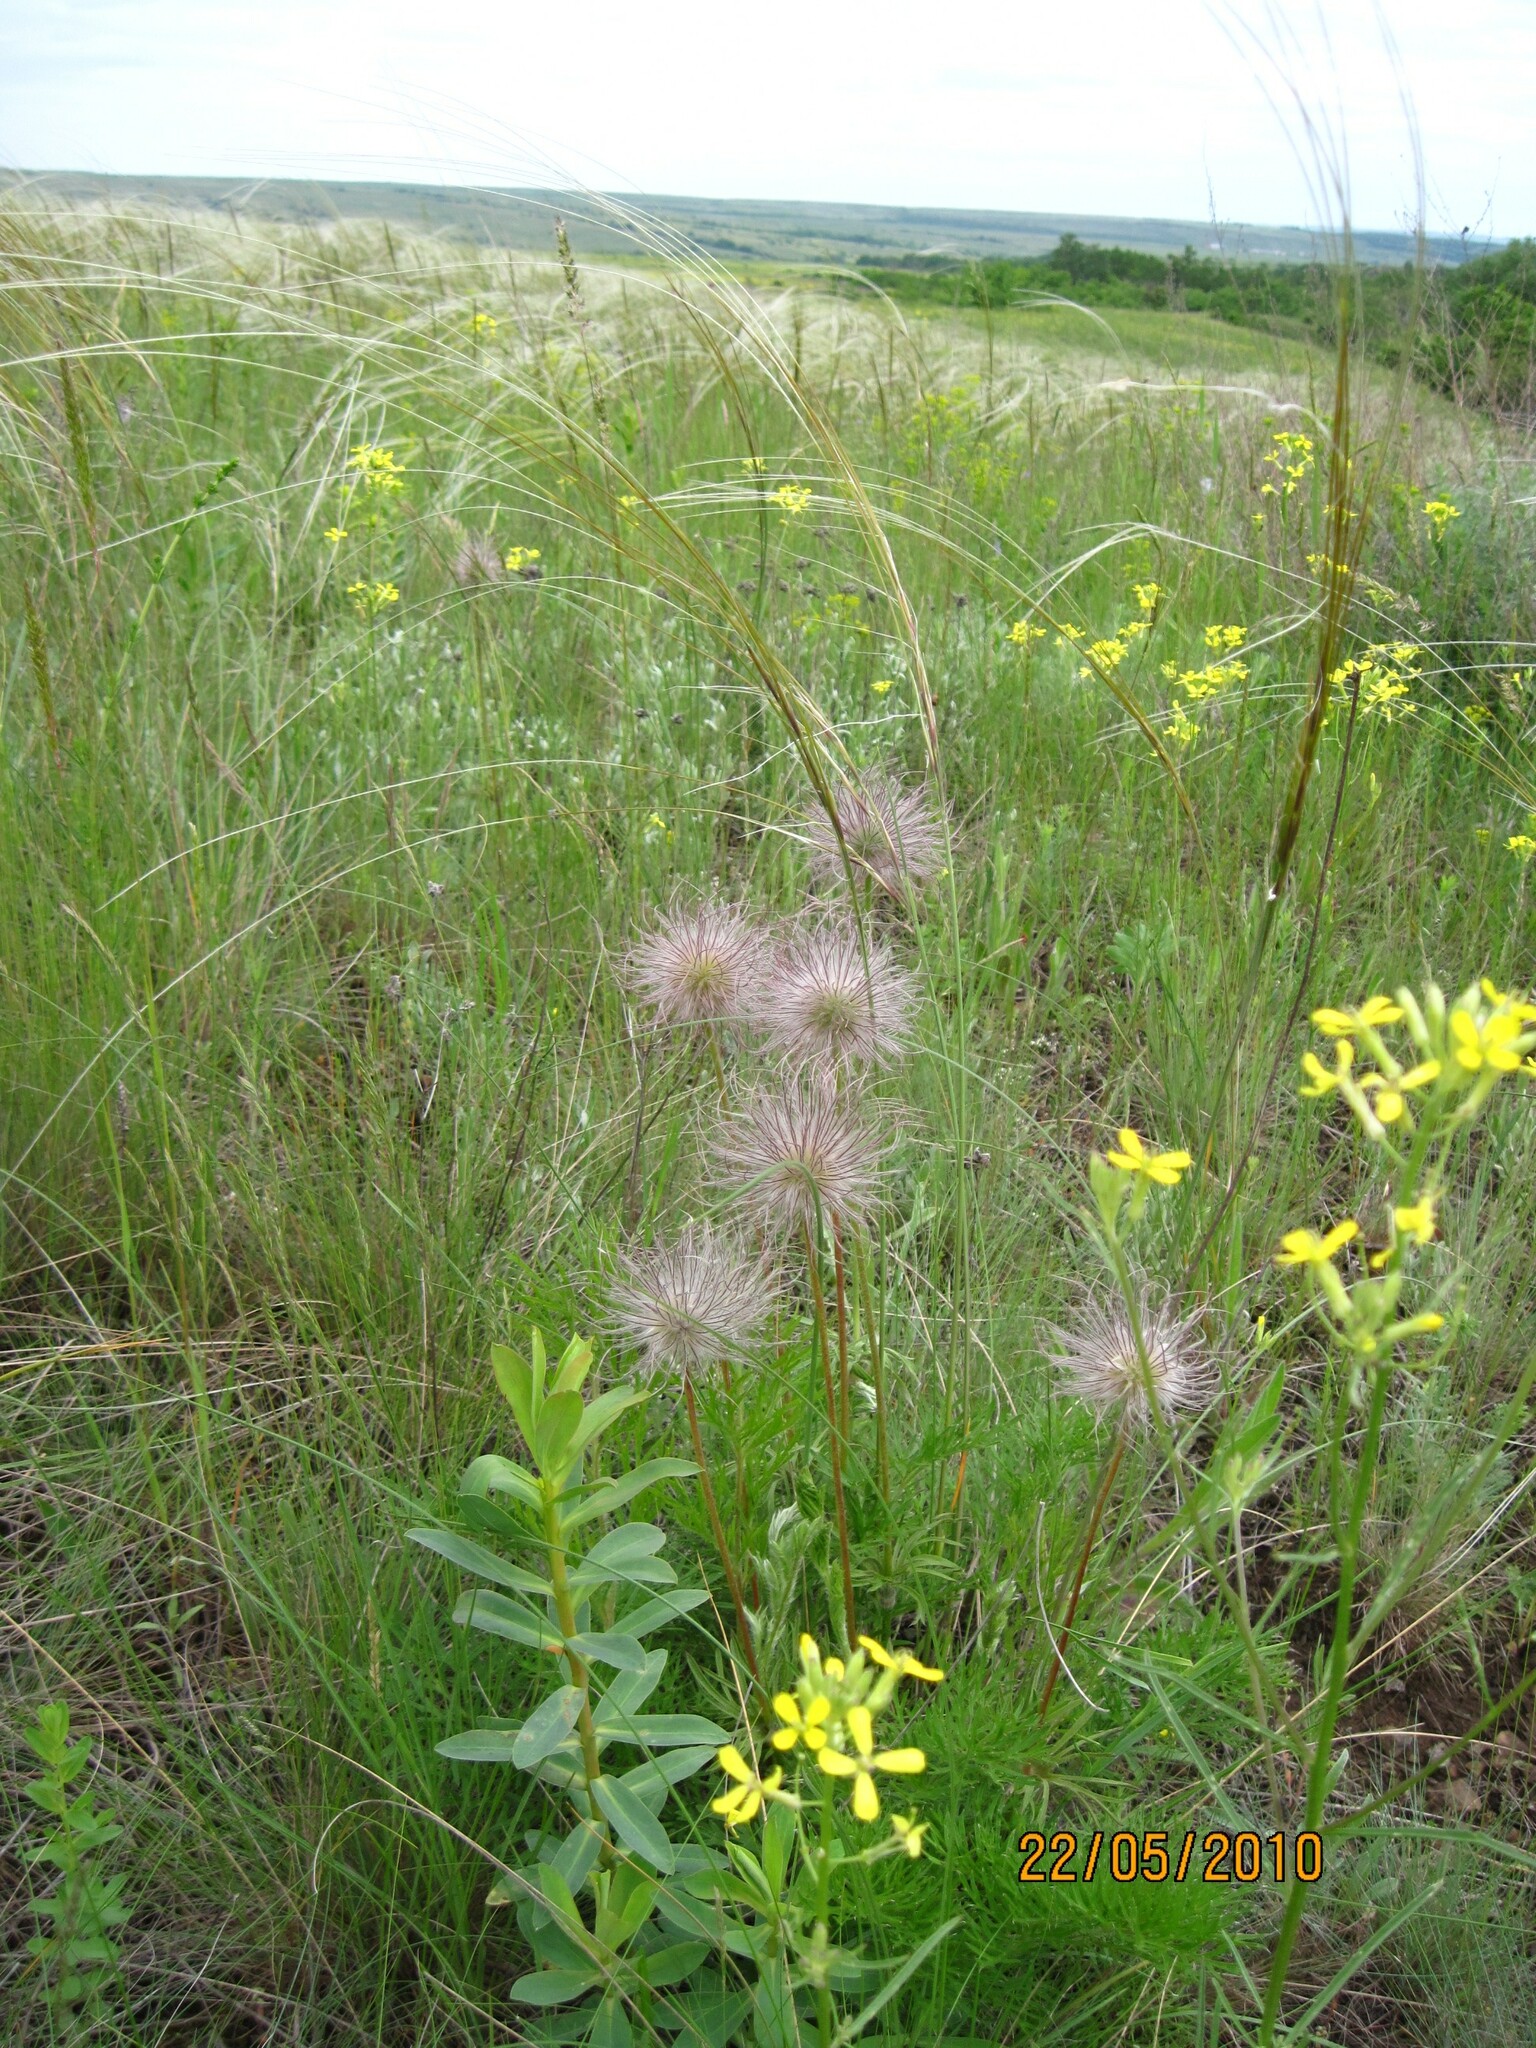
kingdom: Plantae
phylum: Tracheophyta
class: Magnoliopsida
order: Ranunculales
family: Ranunculaceae
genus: Pulsatilla
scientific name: Pulsatilla pratensis
